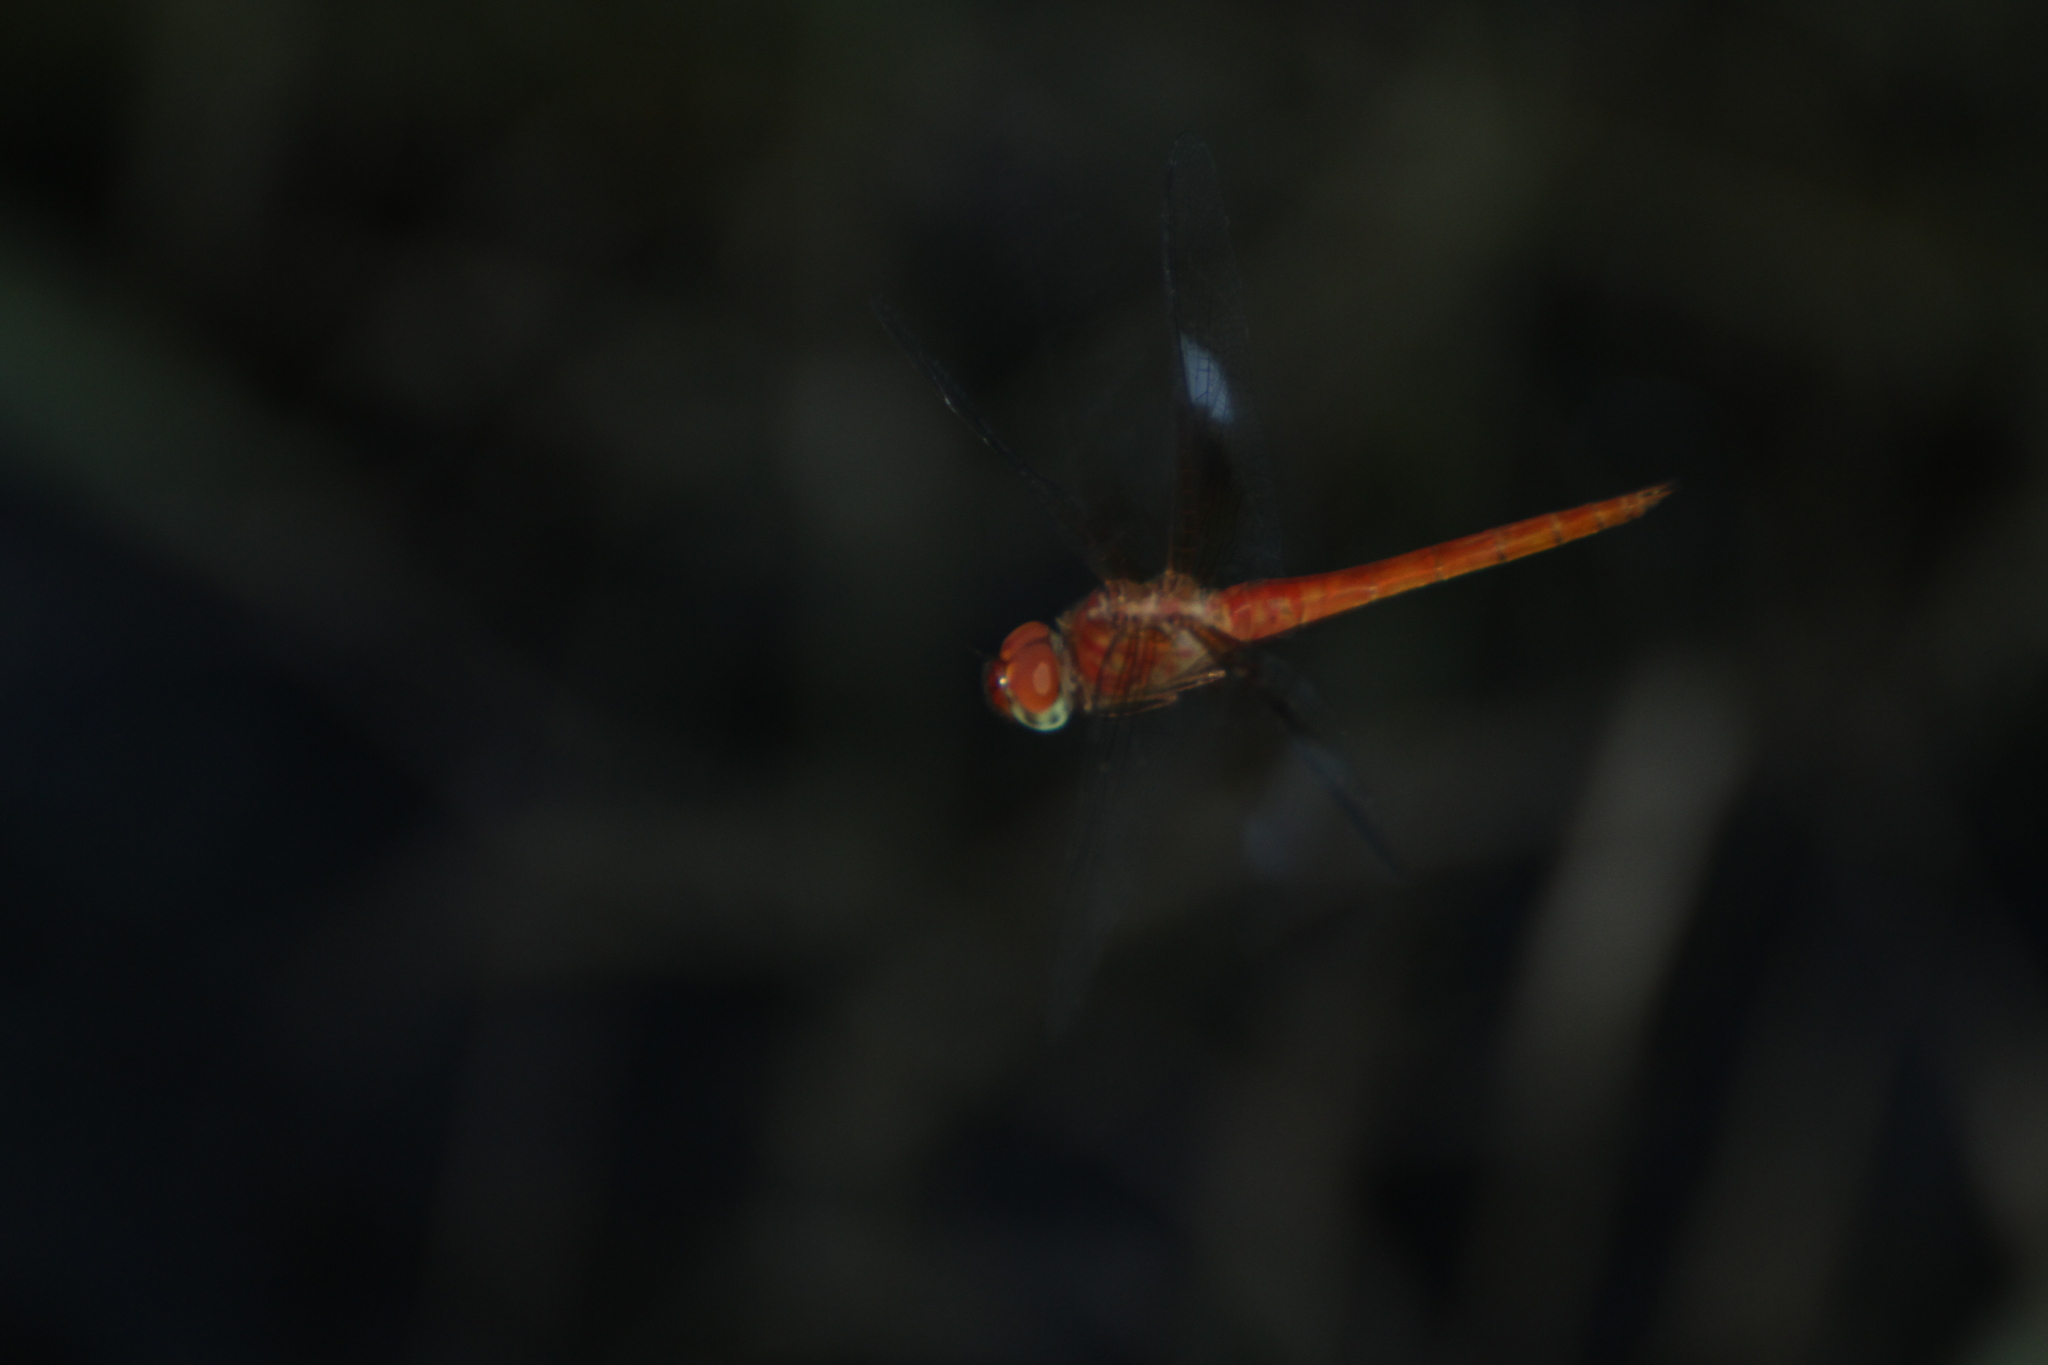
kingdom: Animalia
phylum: Arthropoda
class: Insecta
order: Odonata
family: Libellulidae
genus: Tholymis
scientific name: Tholymis tillarga
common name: Coral-tailed cloud wing
